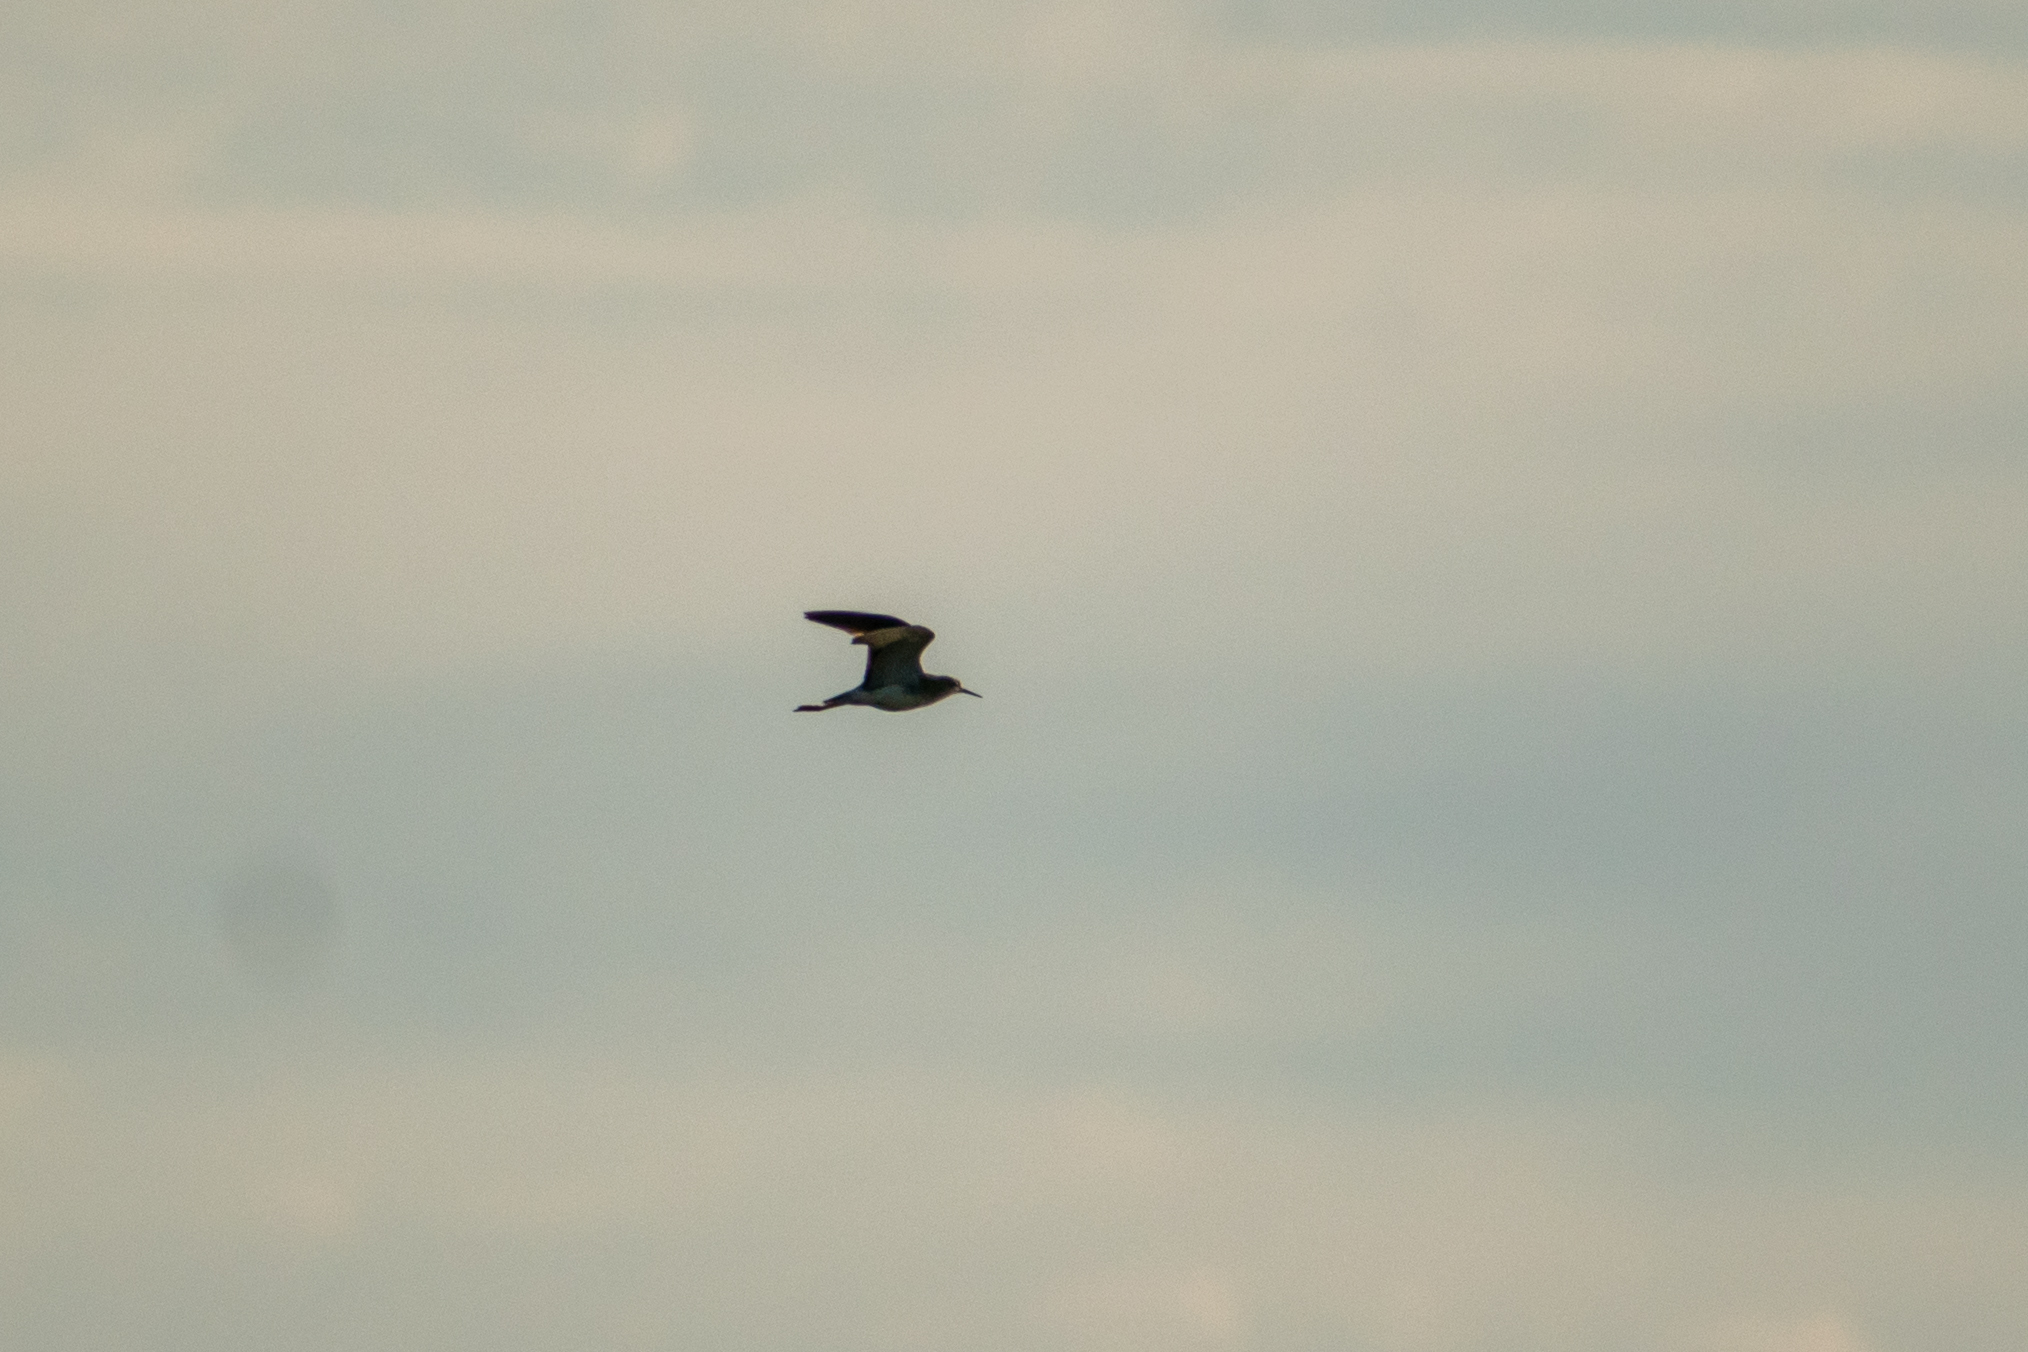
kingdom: Animalia
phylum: Chordata
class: Aves
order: Charadriiformes
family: Scolopacidae
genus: Tringa
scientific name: Tringa flavipes
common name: Lesser yellowlegs
